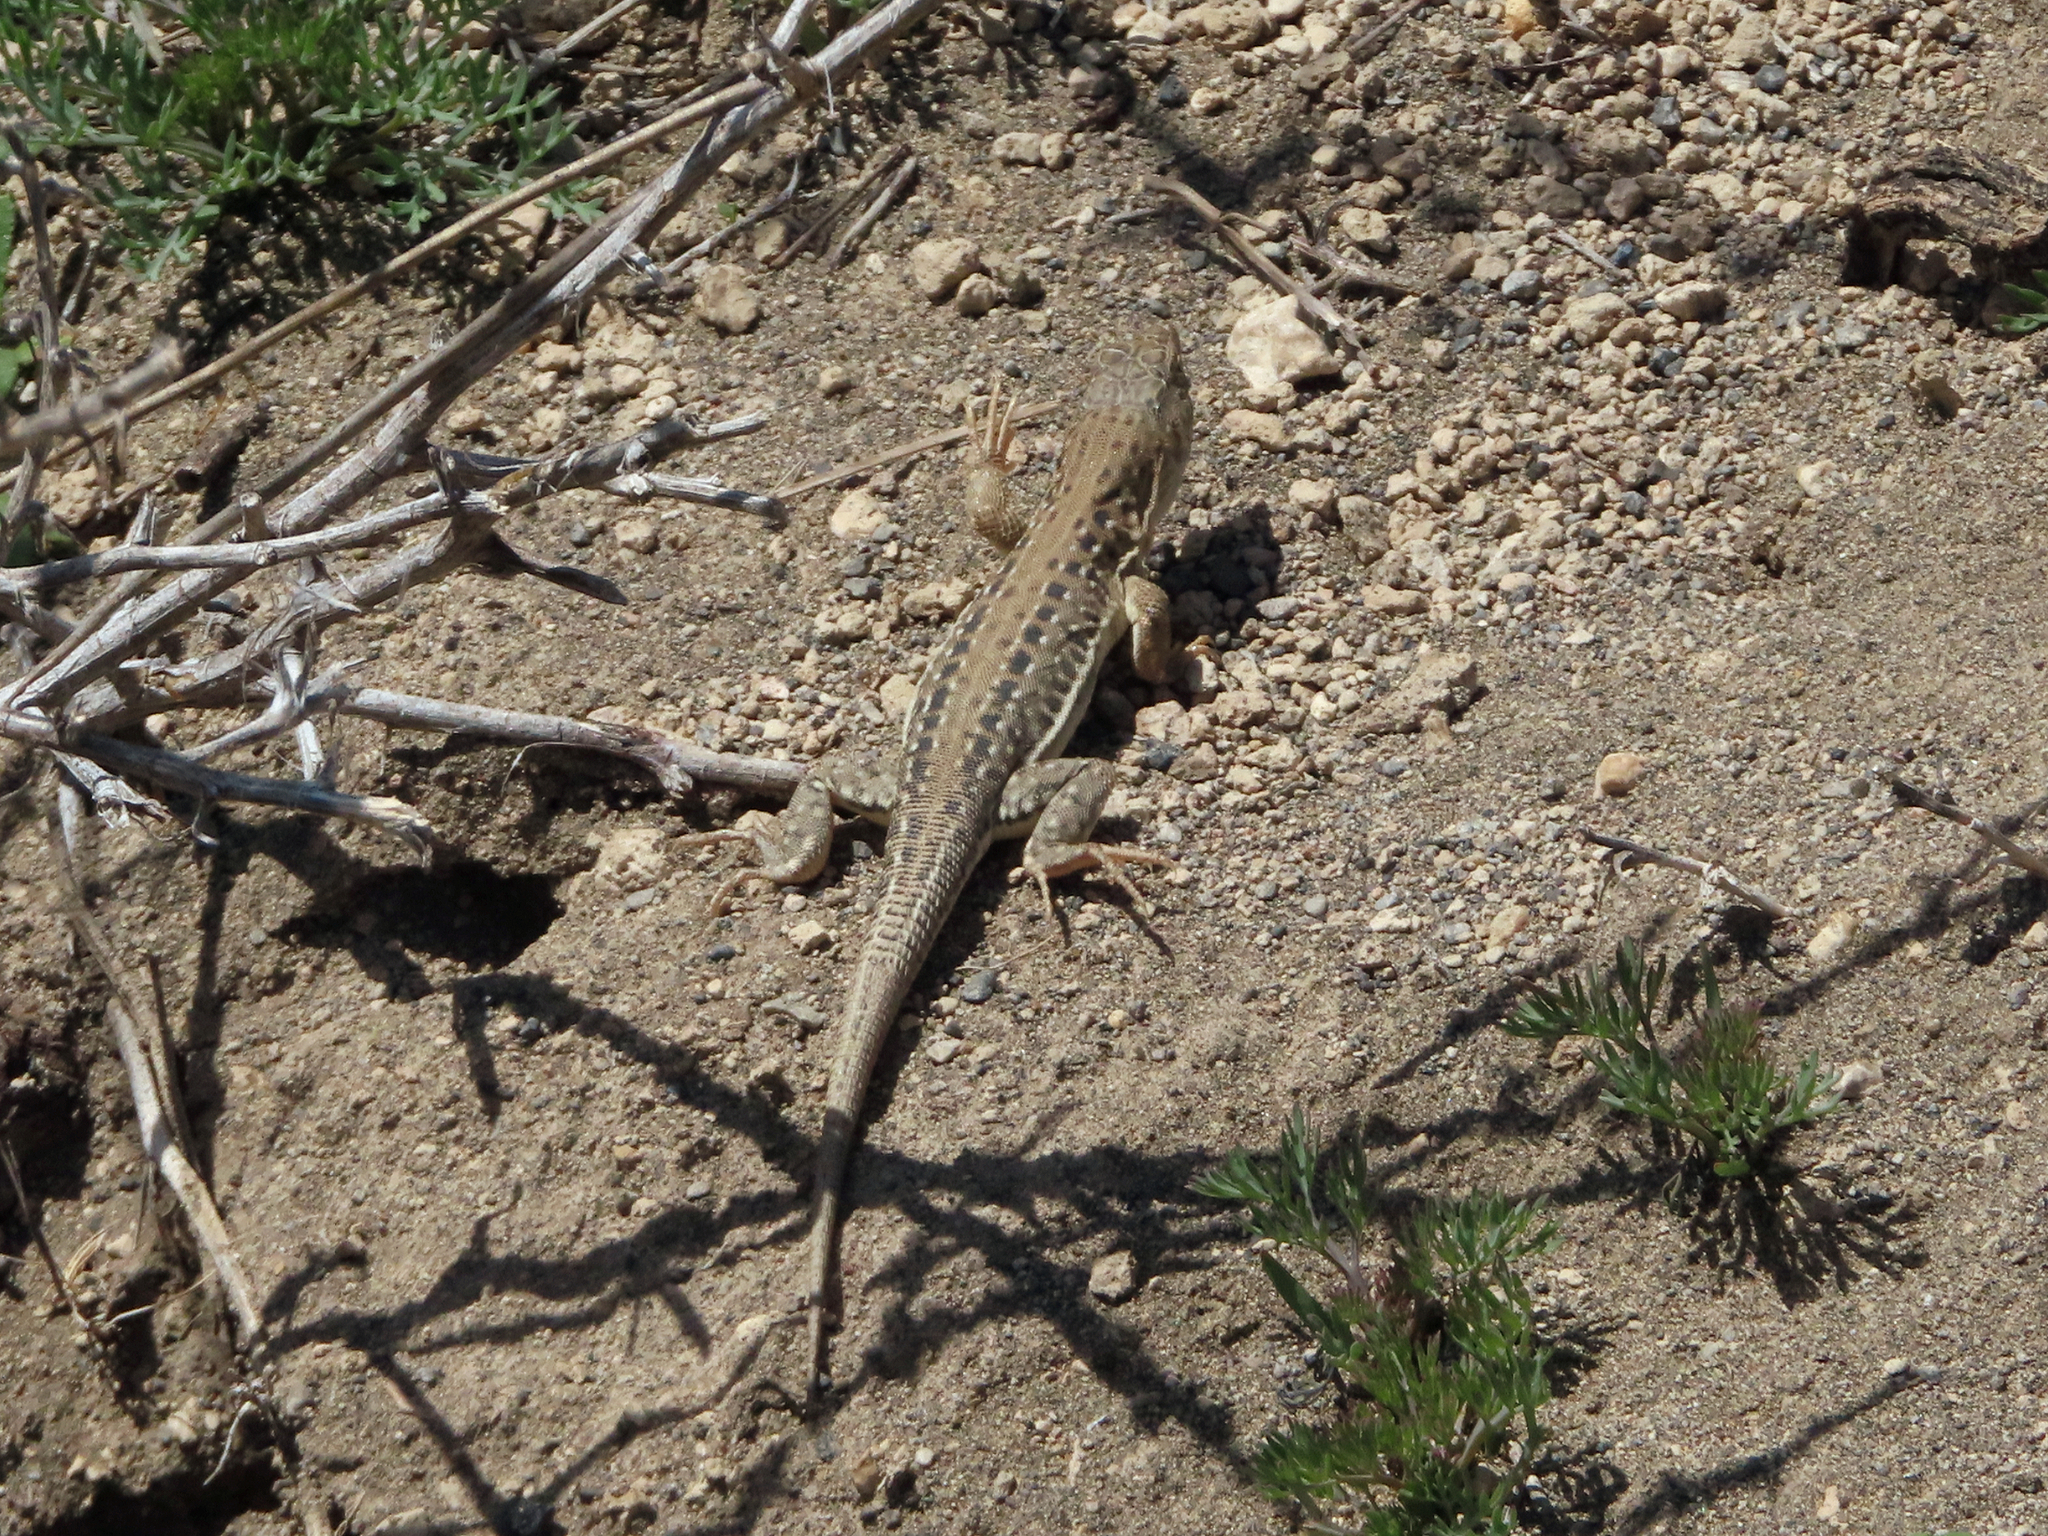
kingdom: Animalia
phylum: Chordata
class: Squamata
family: Lacertidae
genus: Eremias
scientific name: Eremias strauchi
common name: Strauch's racerunner
